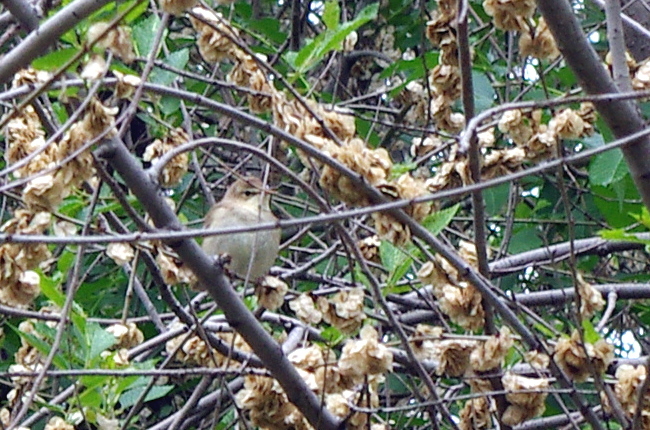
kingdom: Animalia
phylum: Chordata
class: Aves
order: Passeriformes
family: Acrocephalidae
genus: Iduna
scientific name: Iduna caligata
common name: Booted warbler
